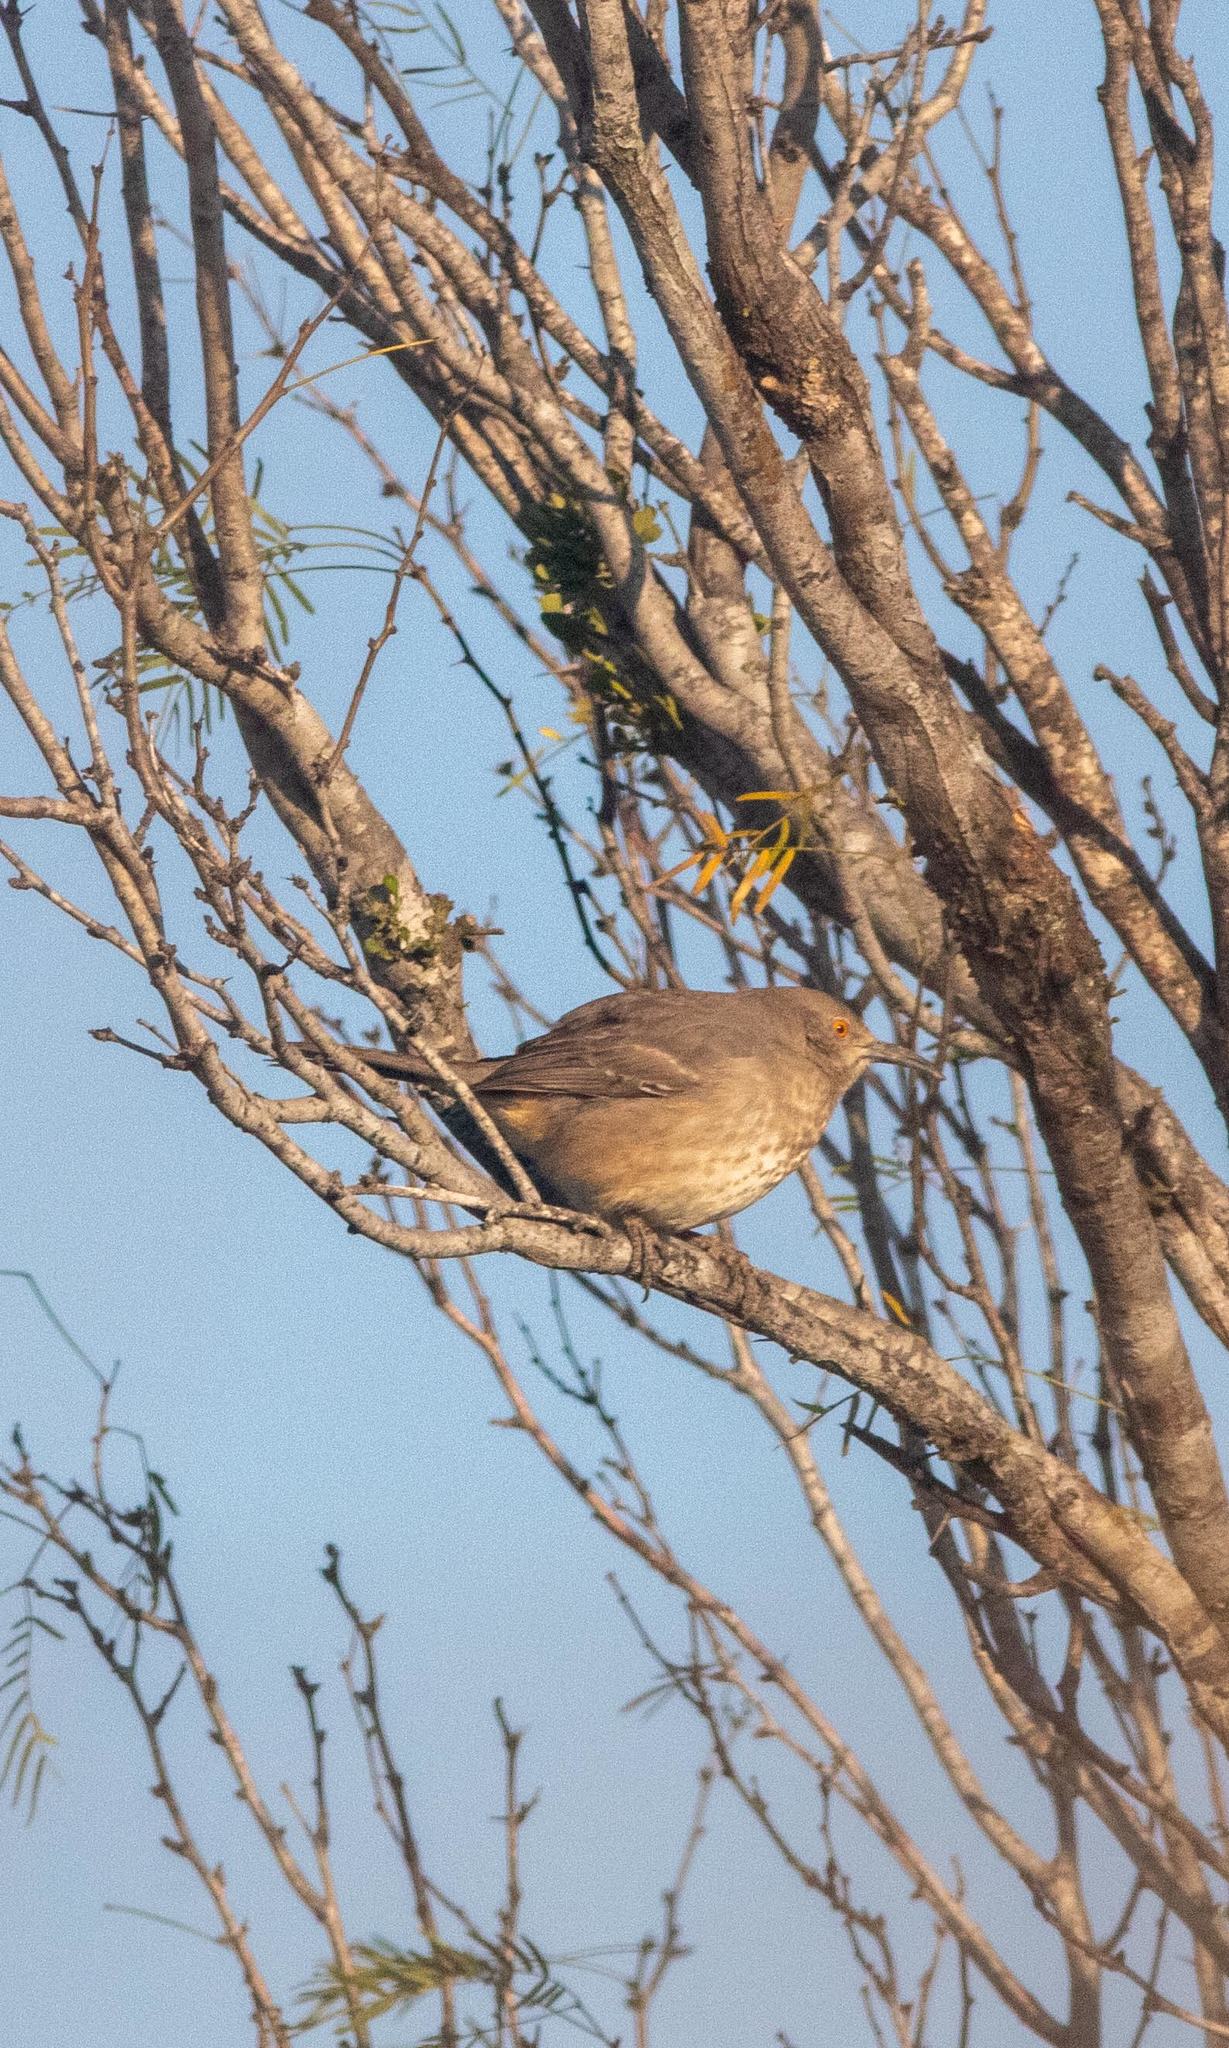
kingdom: Animalia
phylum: Chordata
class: Aves
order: Passeriformes
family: Mimidae
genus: Toxostoma
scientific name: Toxostoma curvirostre
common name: Curve-billed thrasher
